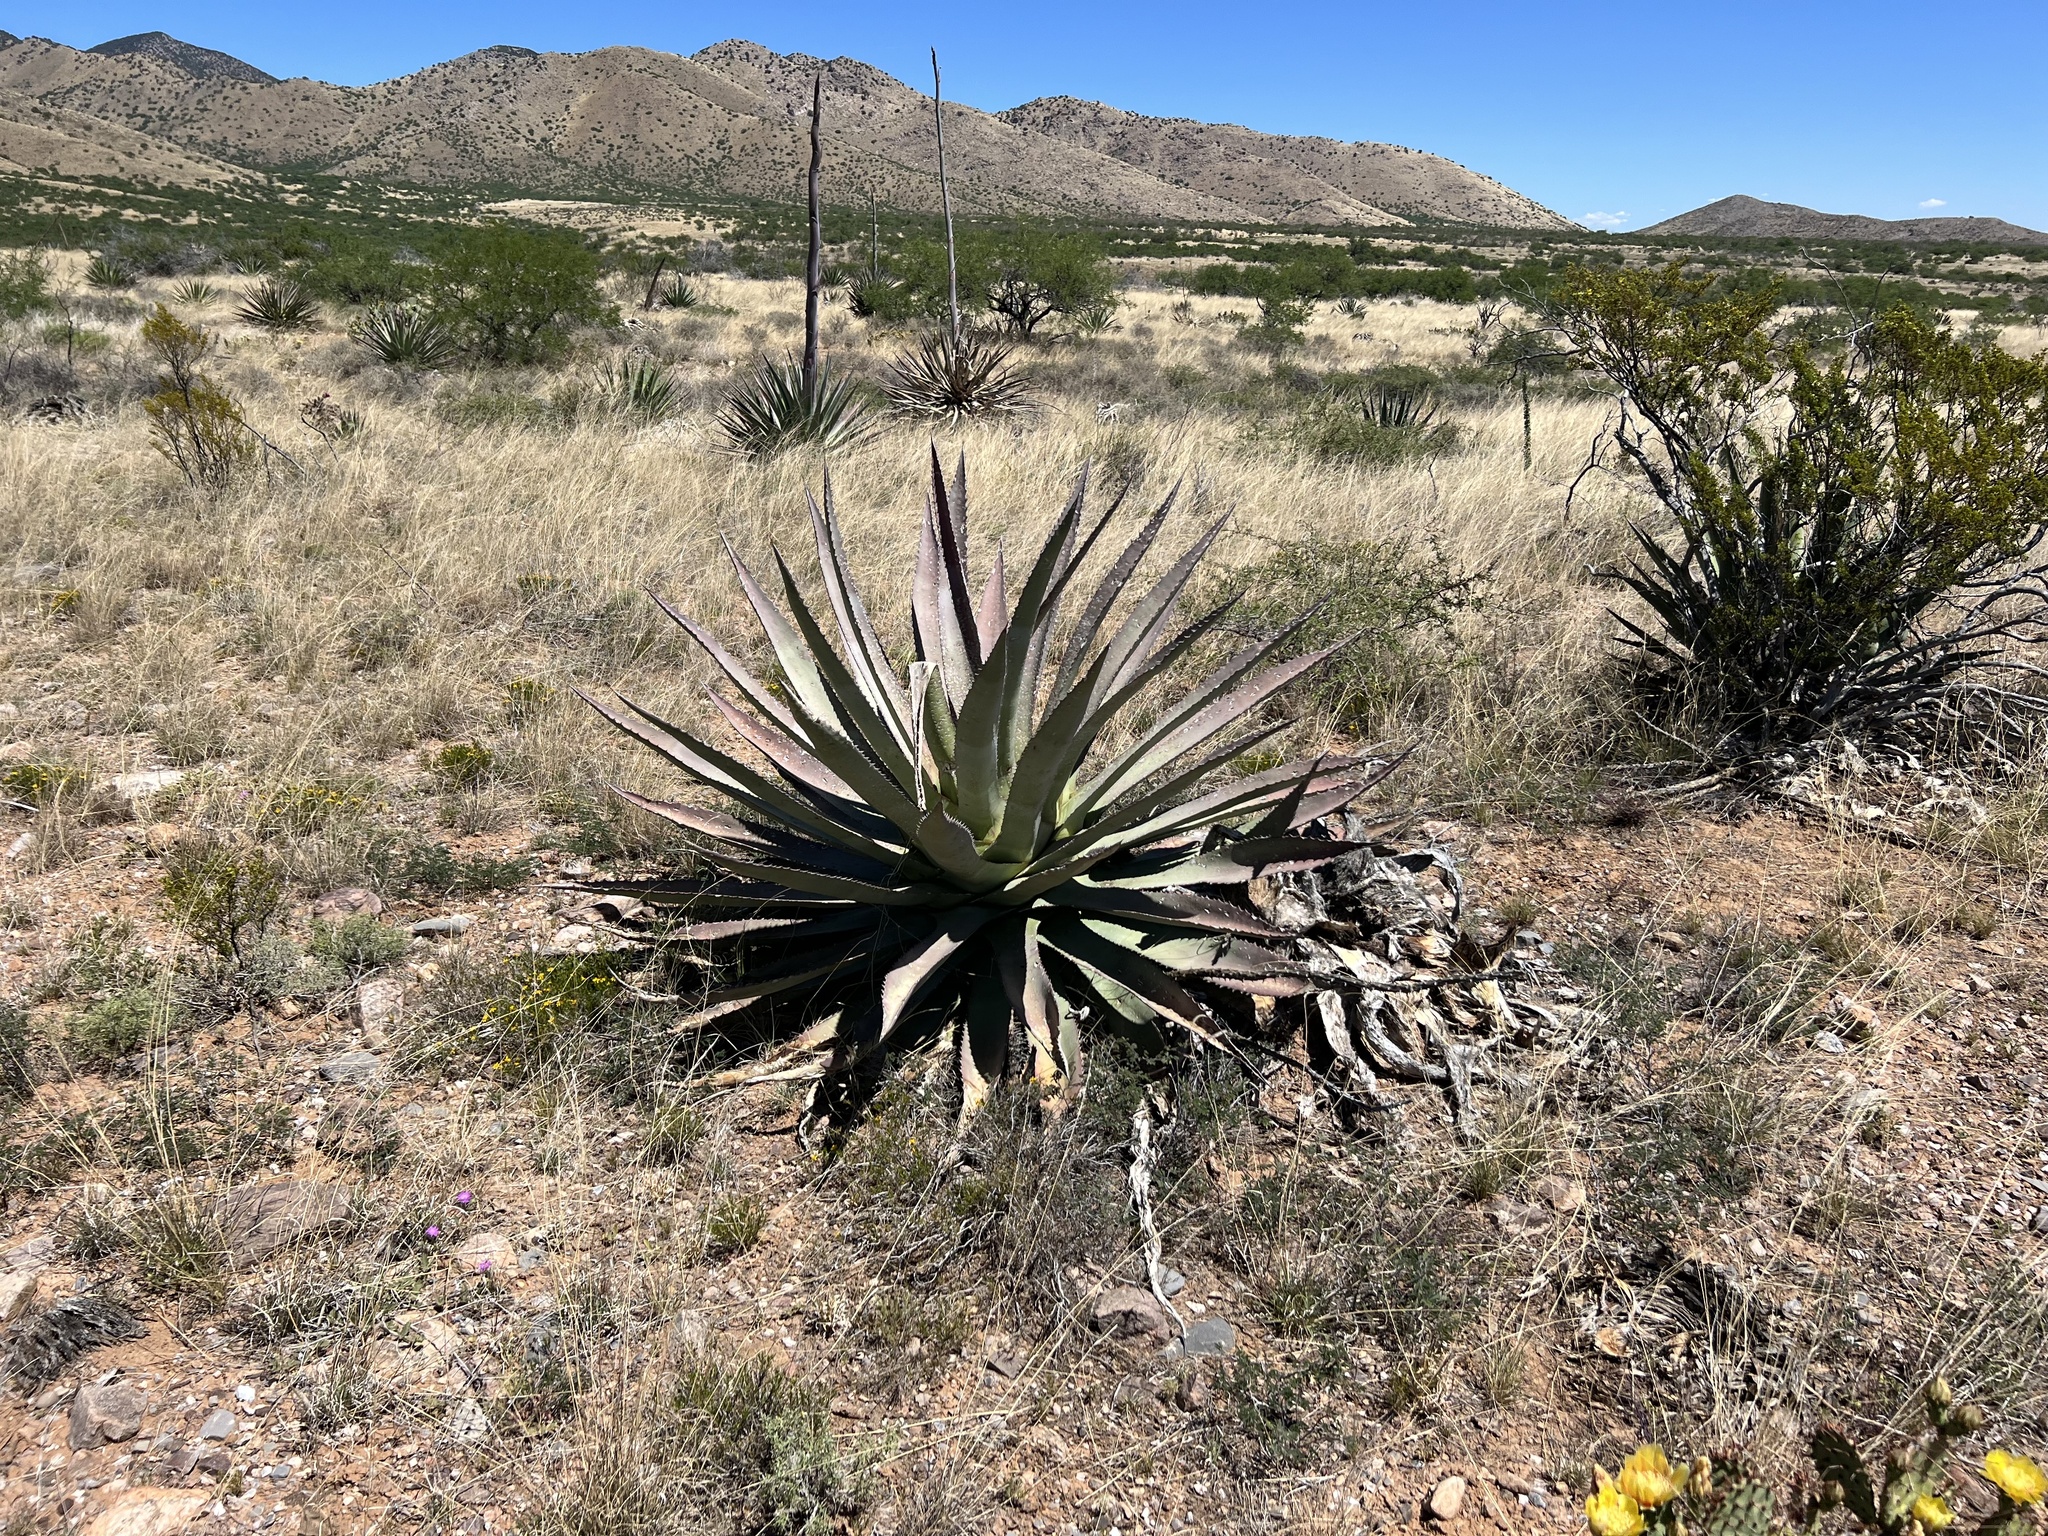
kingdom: Plantae
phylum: Tracheophyta
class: Liliopsida
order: Asparagales
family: Asparagaceae
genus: Agave
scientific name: Agave palmeri
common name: Palmer agave
